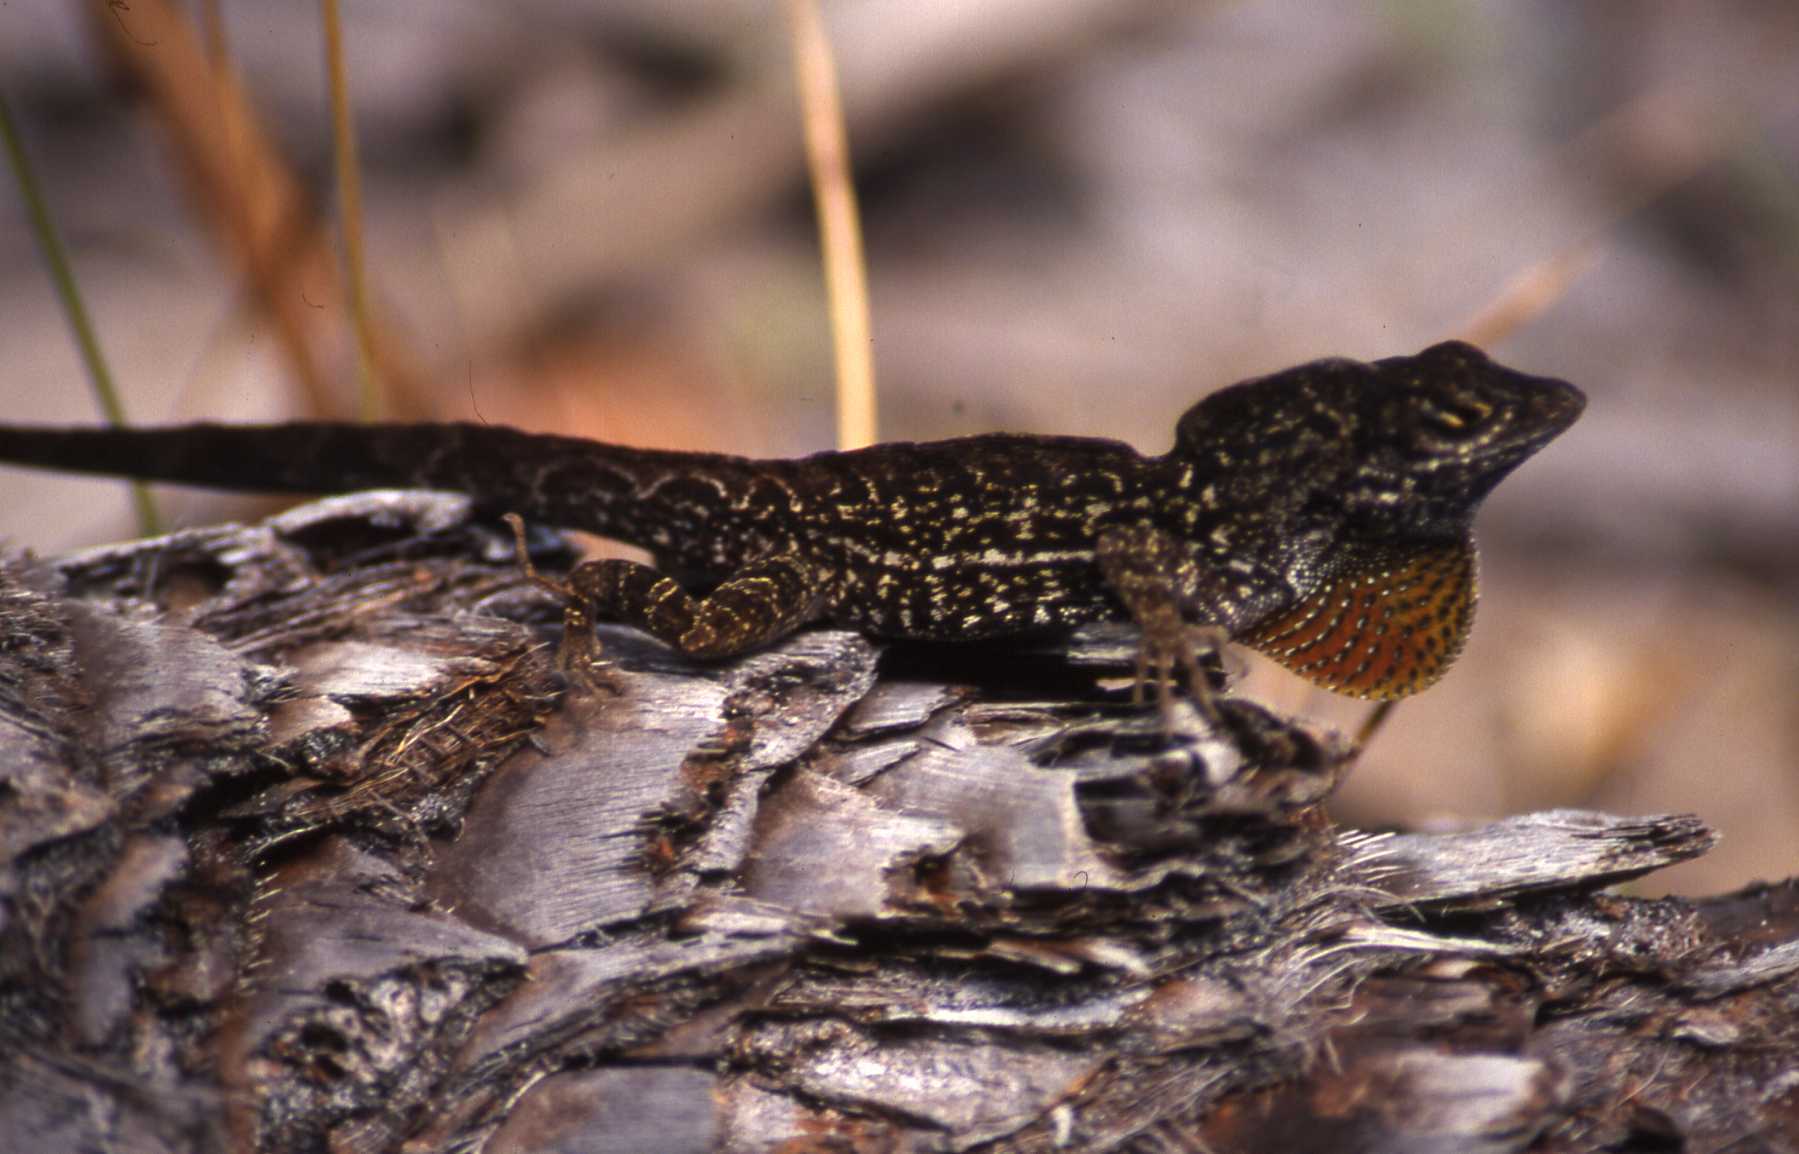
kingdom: Animalia
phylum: Chordata
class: Squamata
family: Dactyloidae
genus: Anolis
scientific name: Anolis sagrei
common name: Brown anole
